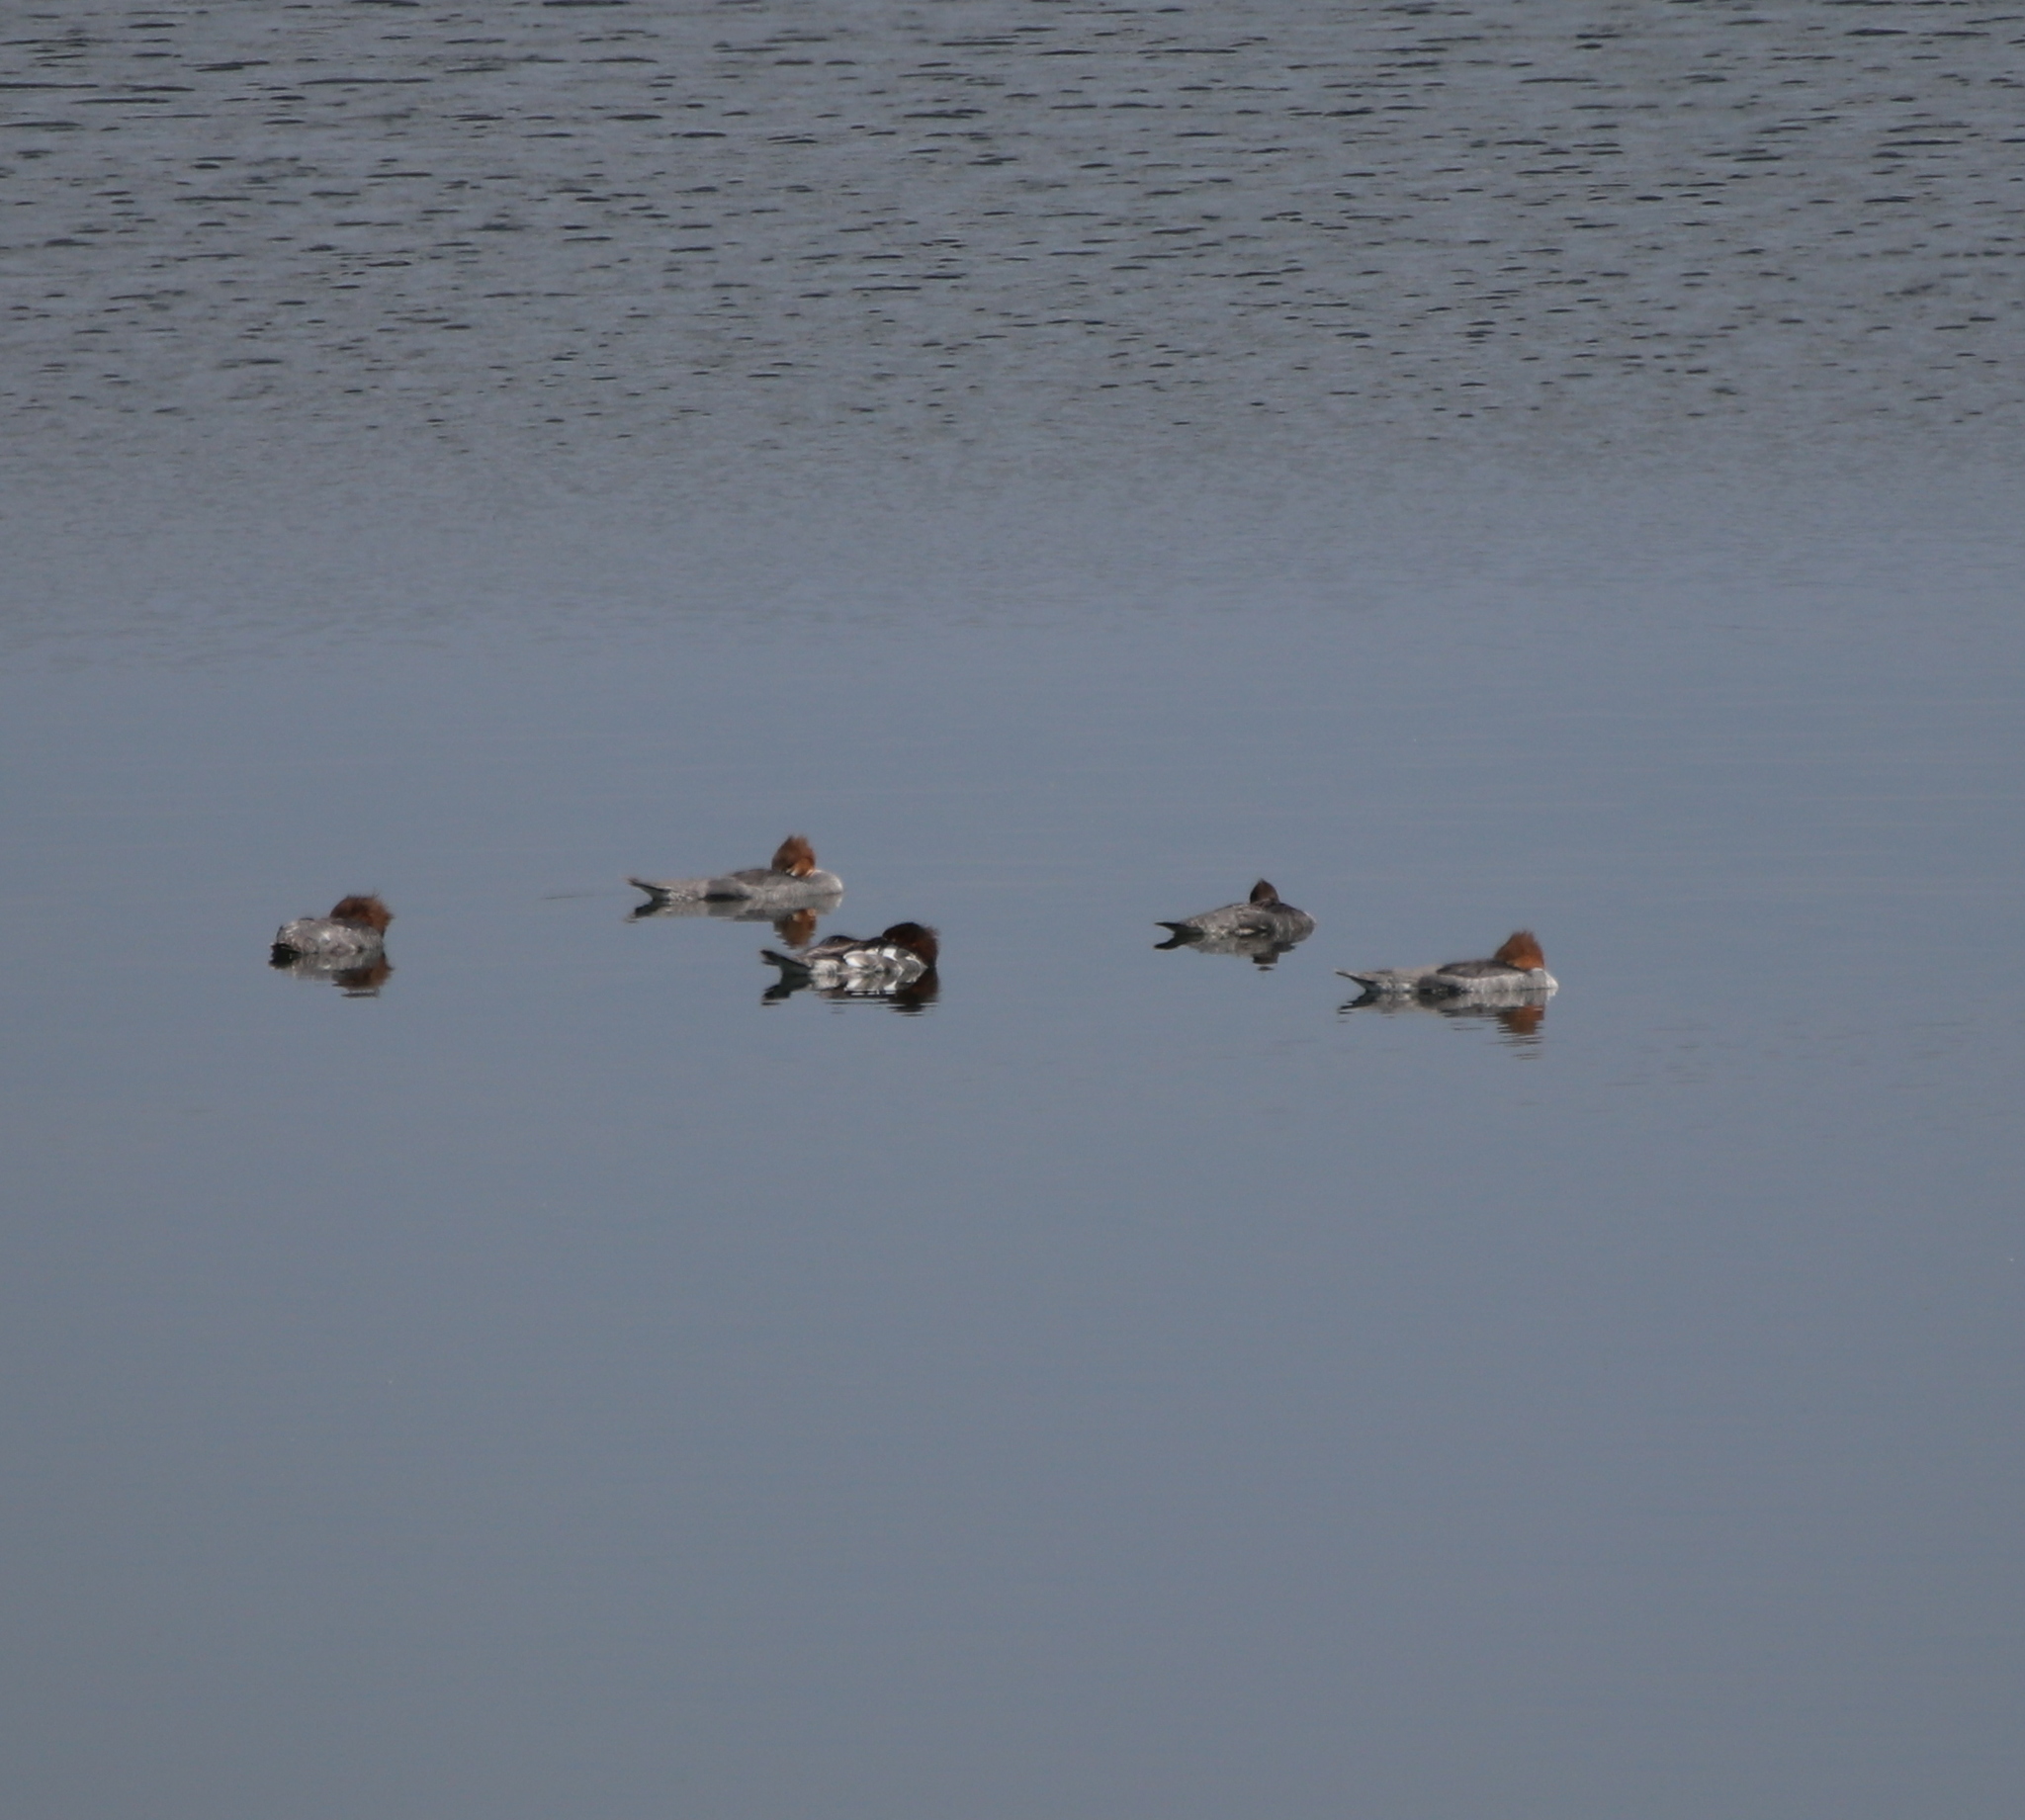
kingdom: Animalia
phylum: Chordata
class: Aves
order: Anseriformes
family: Anatidae
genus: Mergus
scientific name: Mergus serrator
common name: Red-breasted merganser
